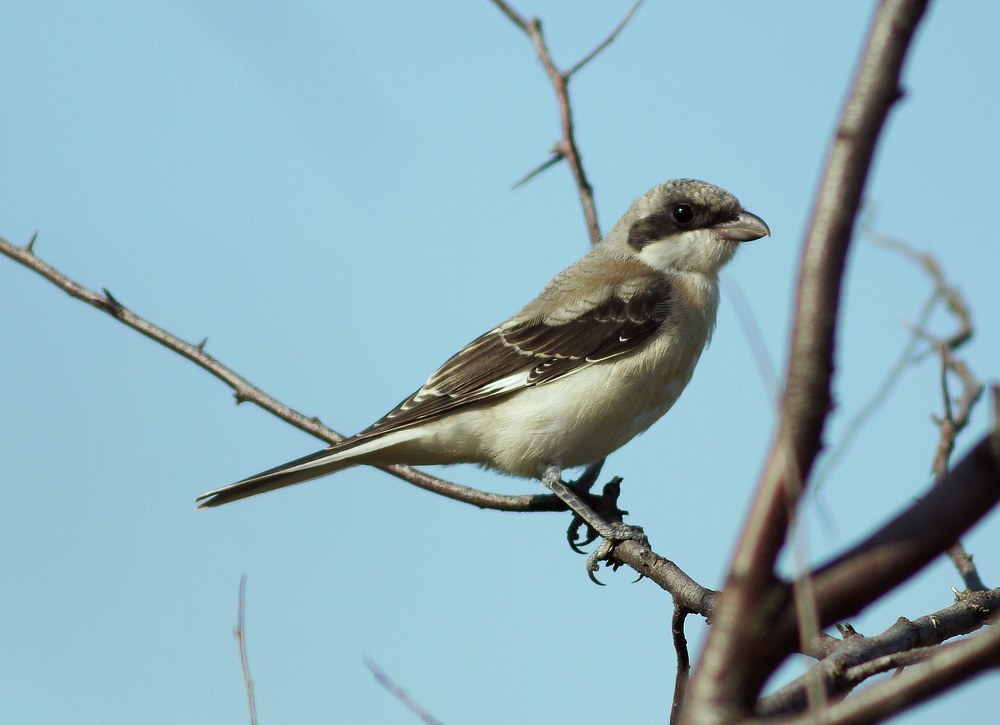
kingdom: Animalia
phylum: Chordata
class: Aves
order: Passeriformes
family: Laniidae
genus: Lanius
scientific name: Lanius minor
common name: Lesser grey shrike
